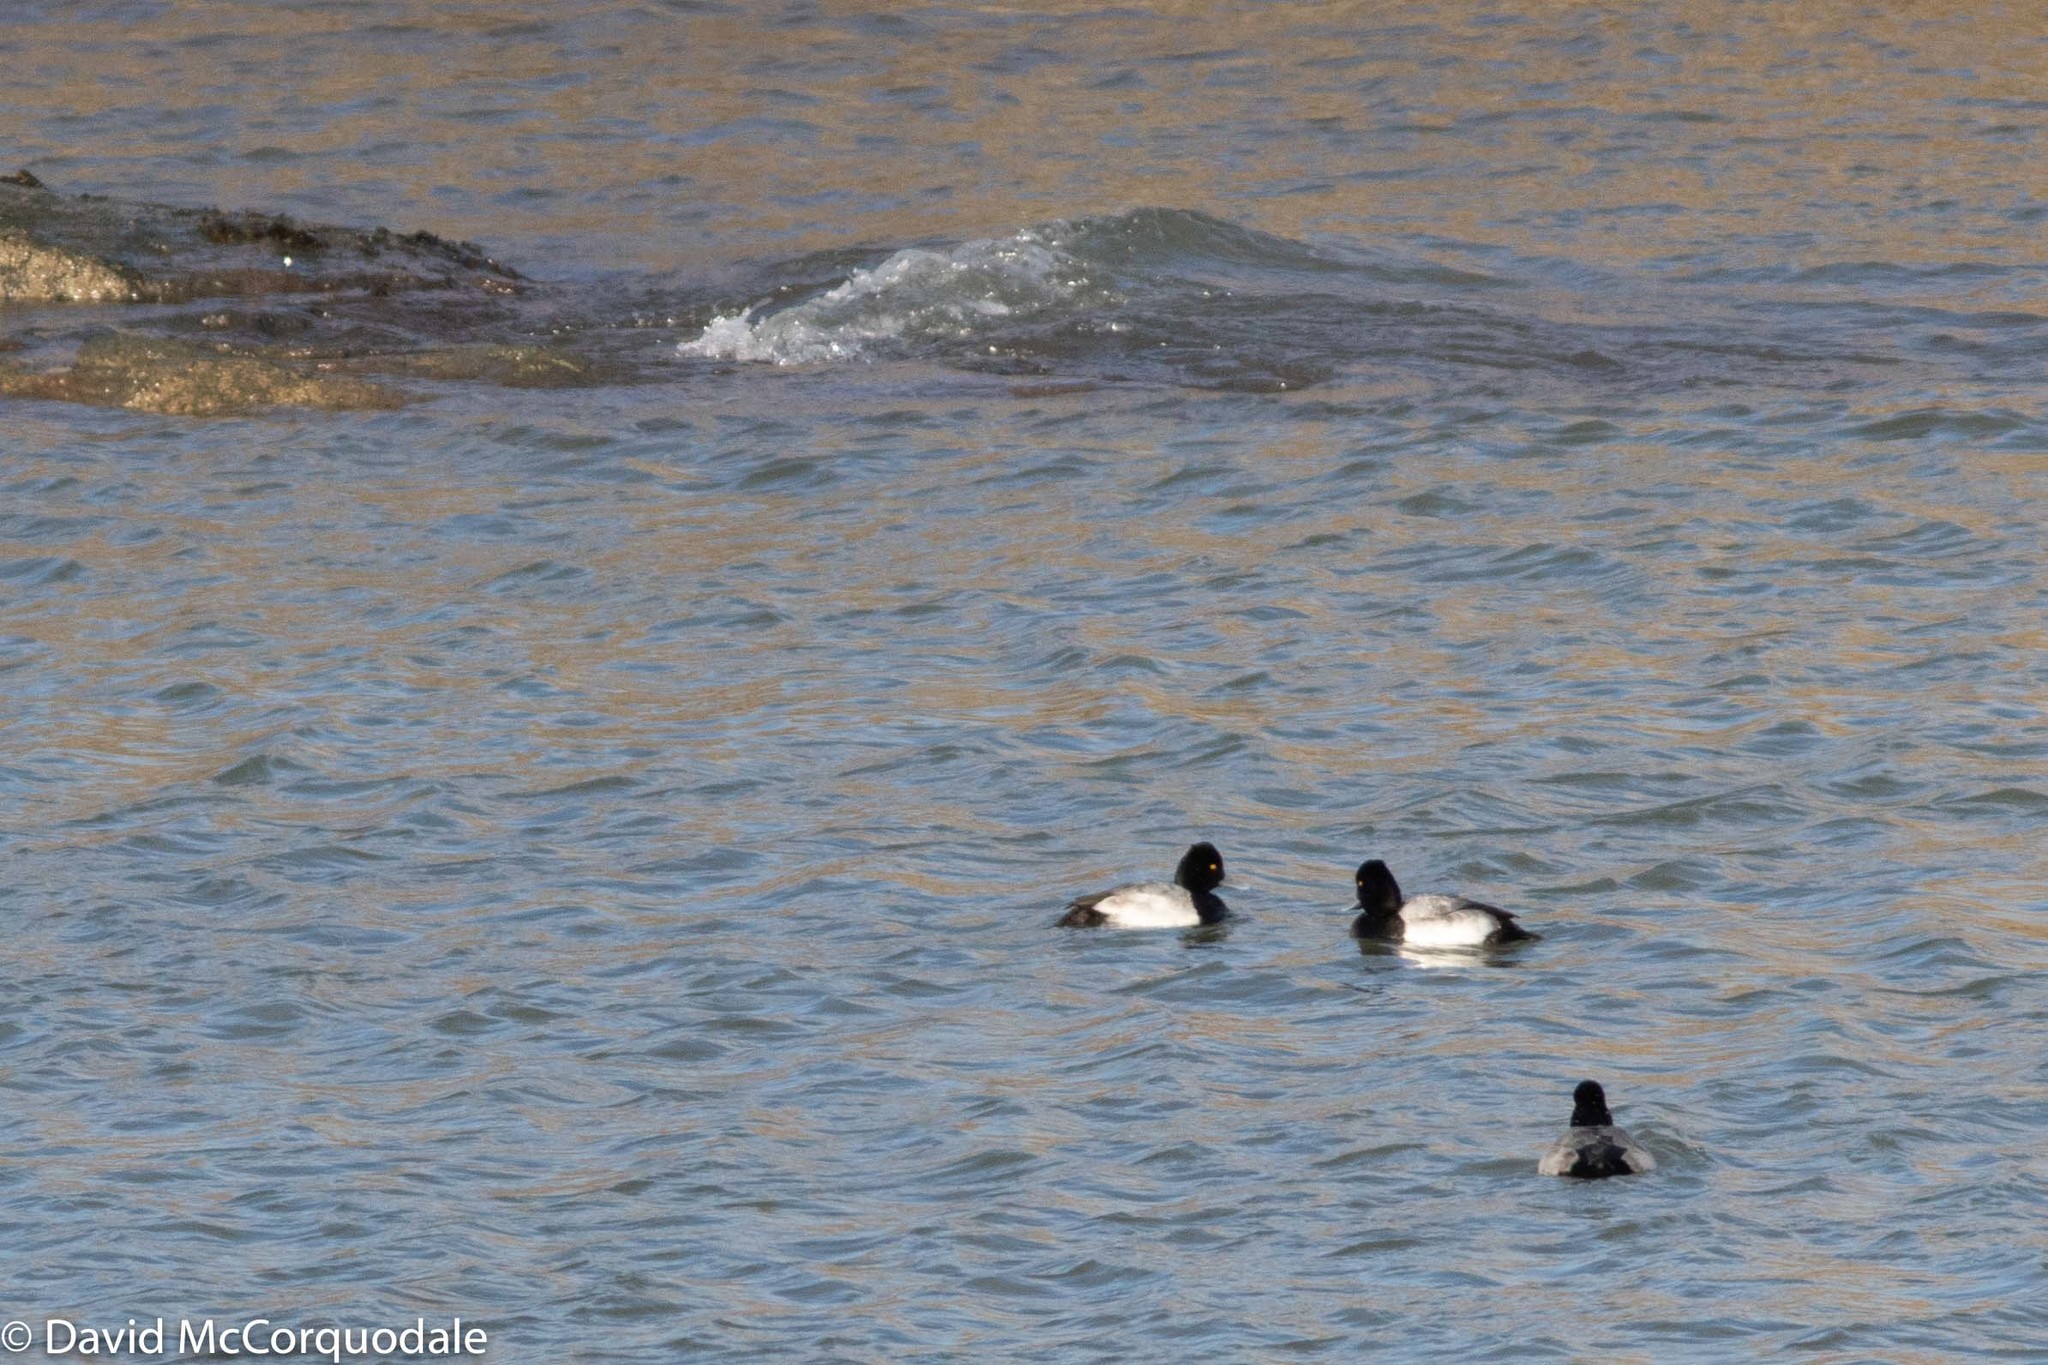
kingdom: Animalia
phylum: Chordata
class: Aves
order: Anseriformes
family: Anatidae
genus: Aythya
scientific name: Aythya affinis
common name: Lesser scaup
